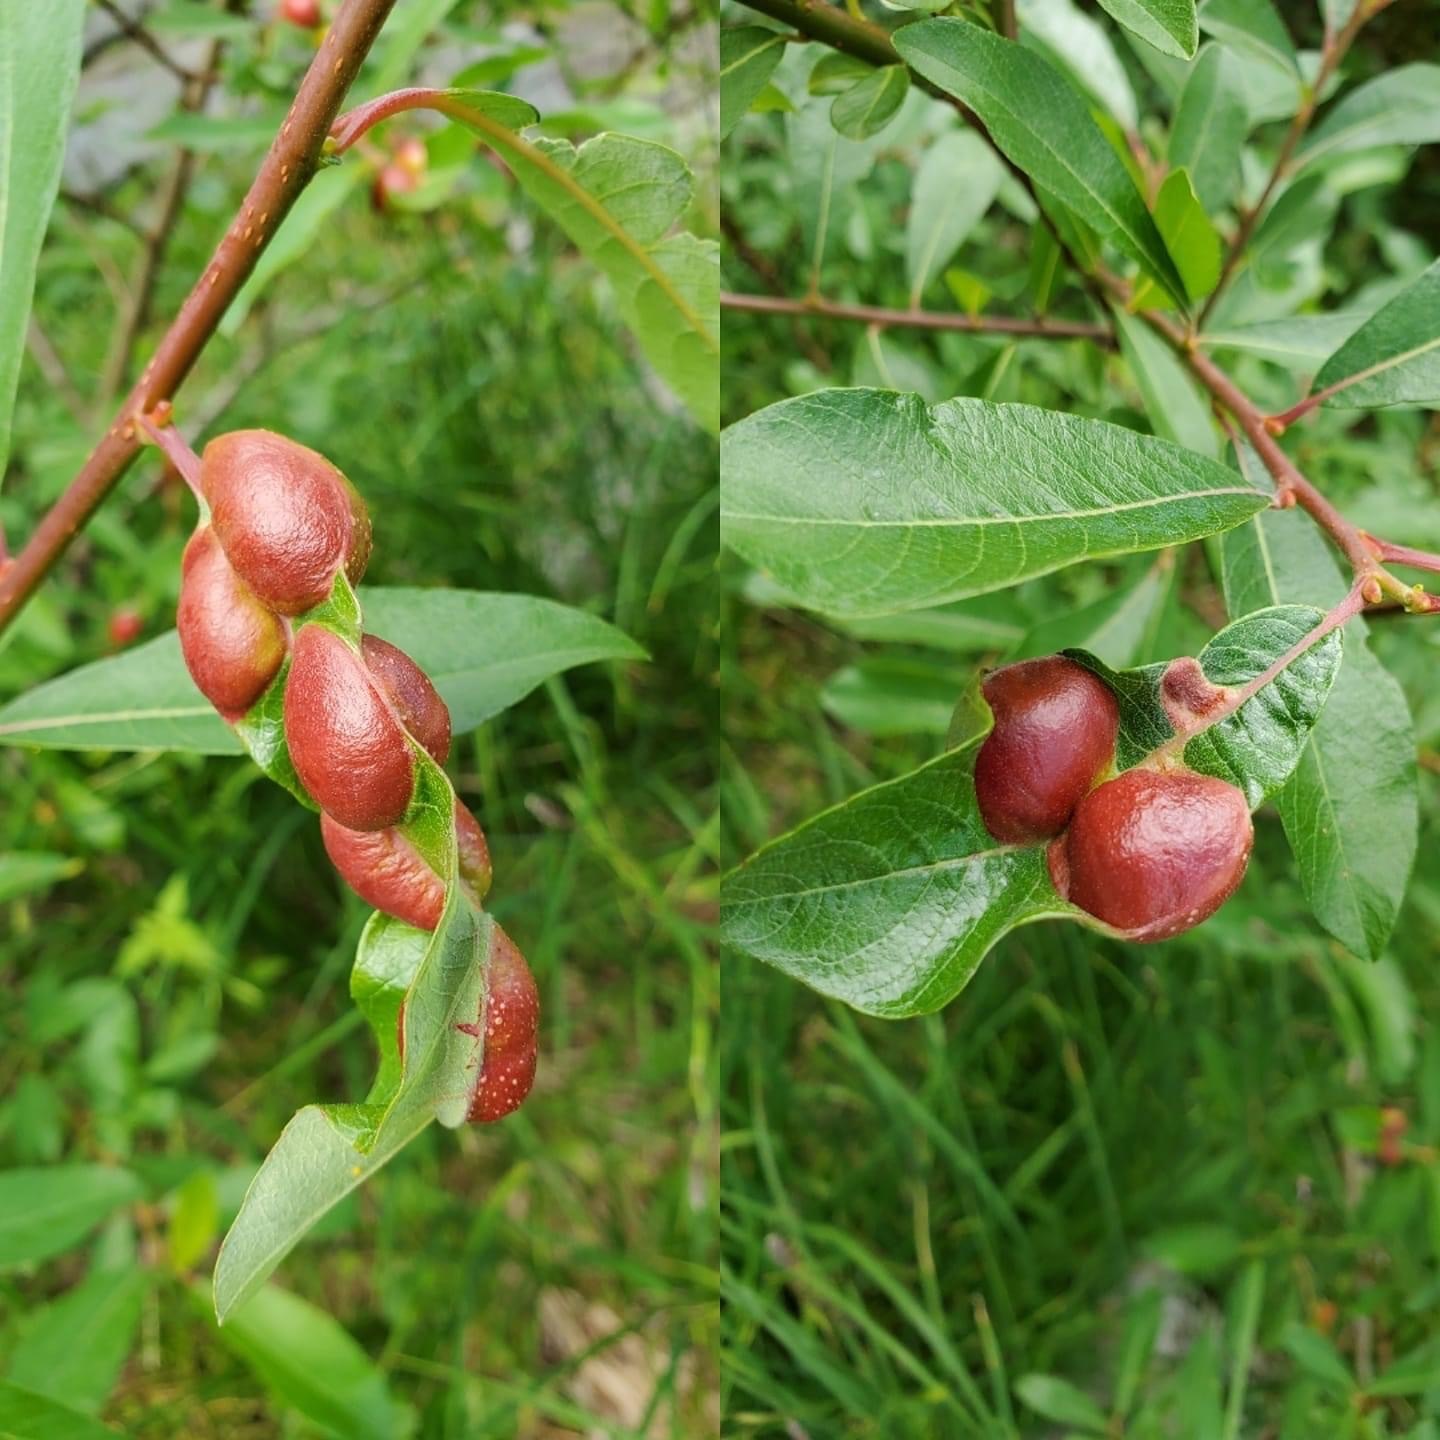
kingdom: Animalia
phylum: Arthropoda
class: Insecta
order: Hymenoptera
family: Tenthredinidae
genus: Euura
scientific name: Euura
